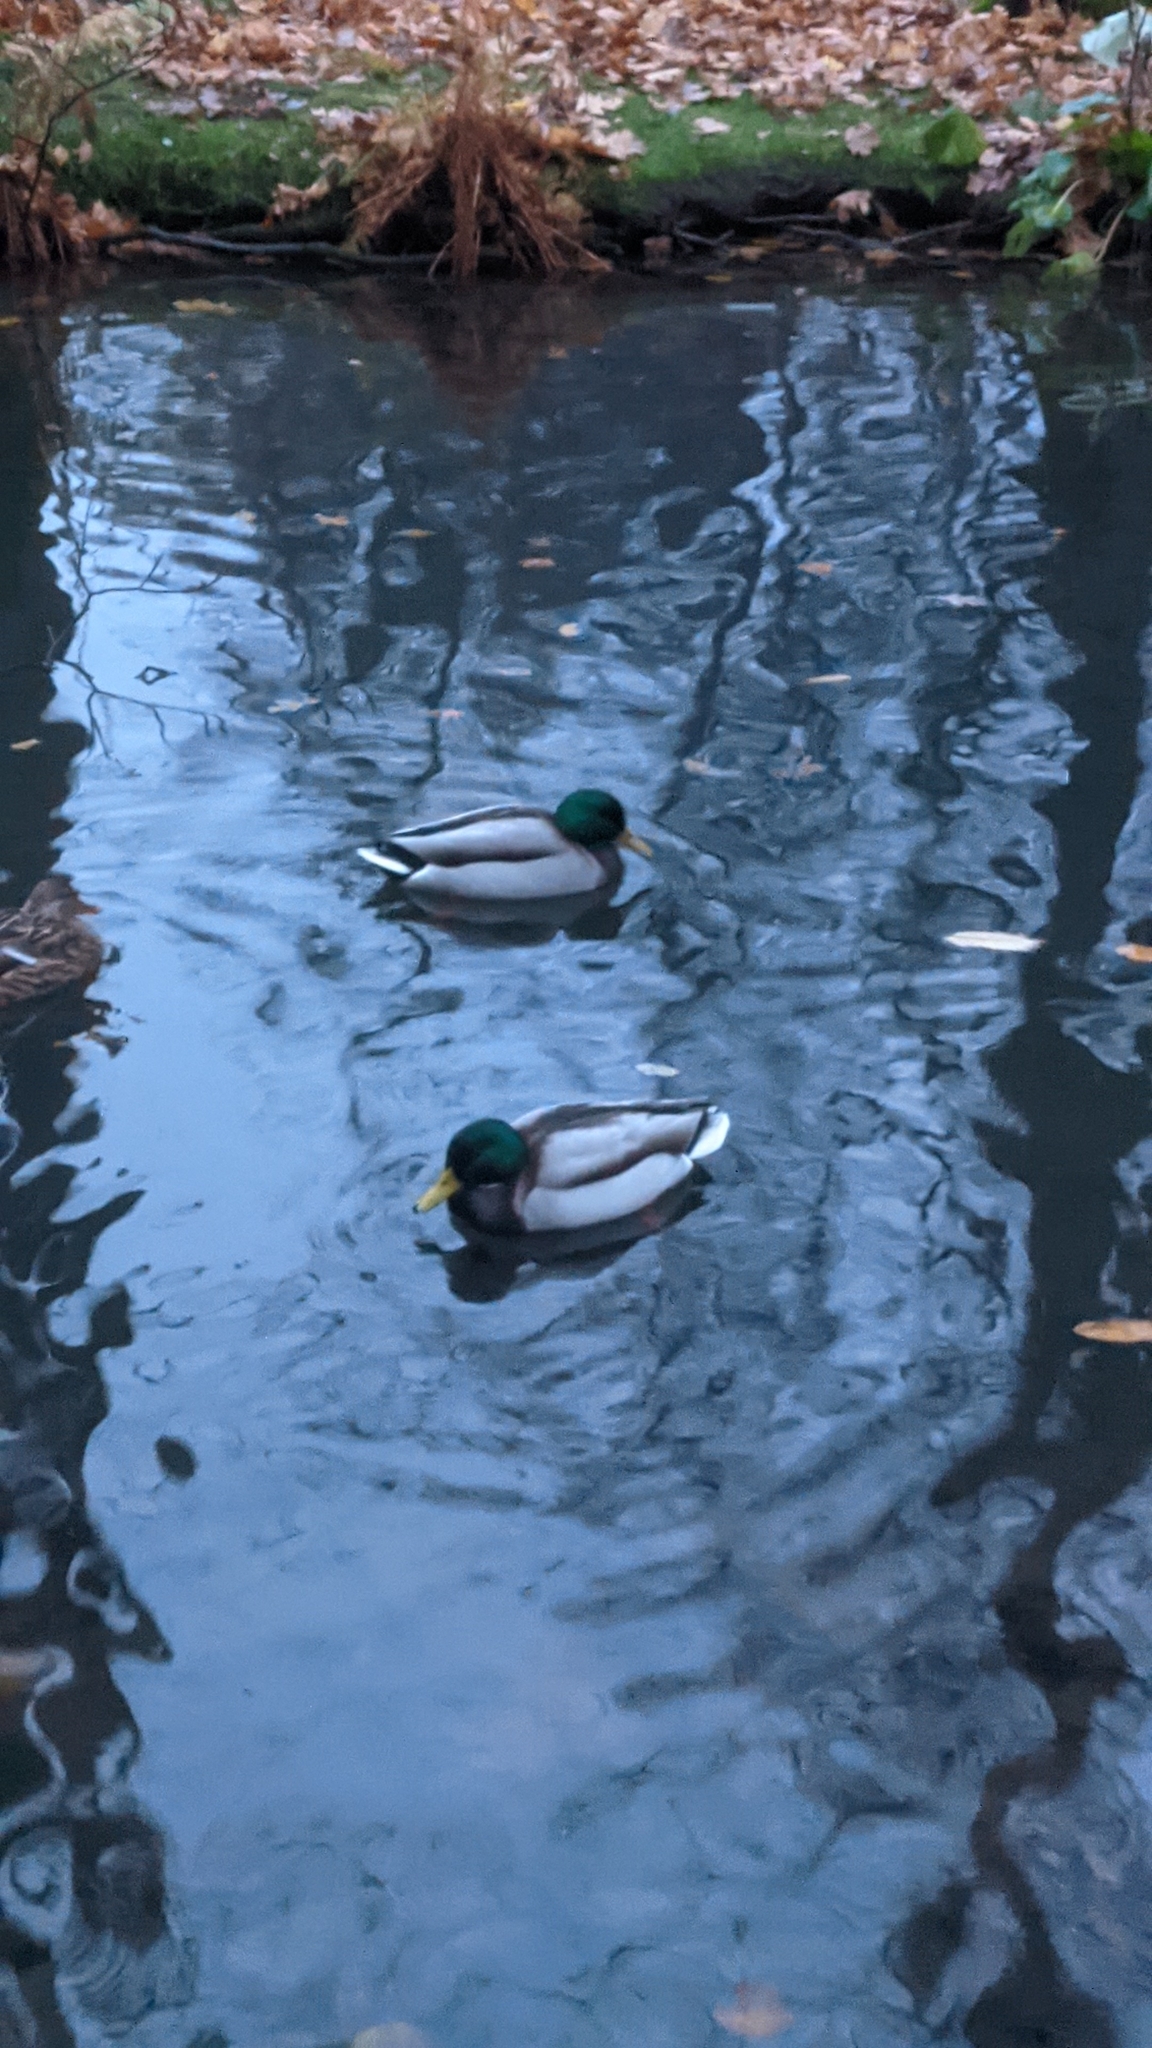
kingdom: Animalia
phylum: Chordata
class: Aves
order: Anseriformes
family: Anatidae
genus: Anas
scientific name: Anas platyrhynchos
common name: Mallard
